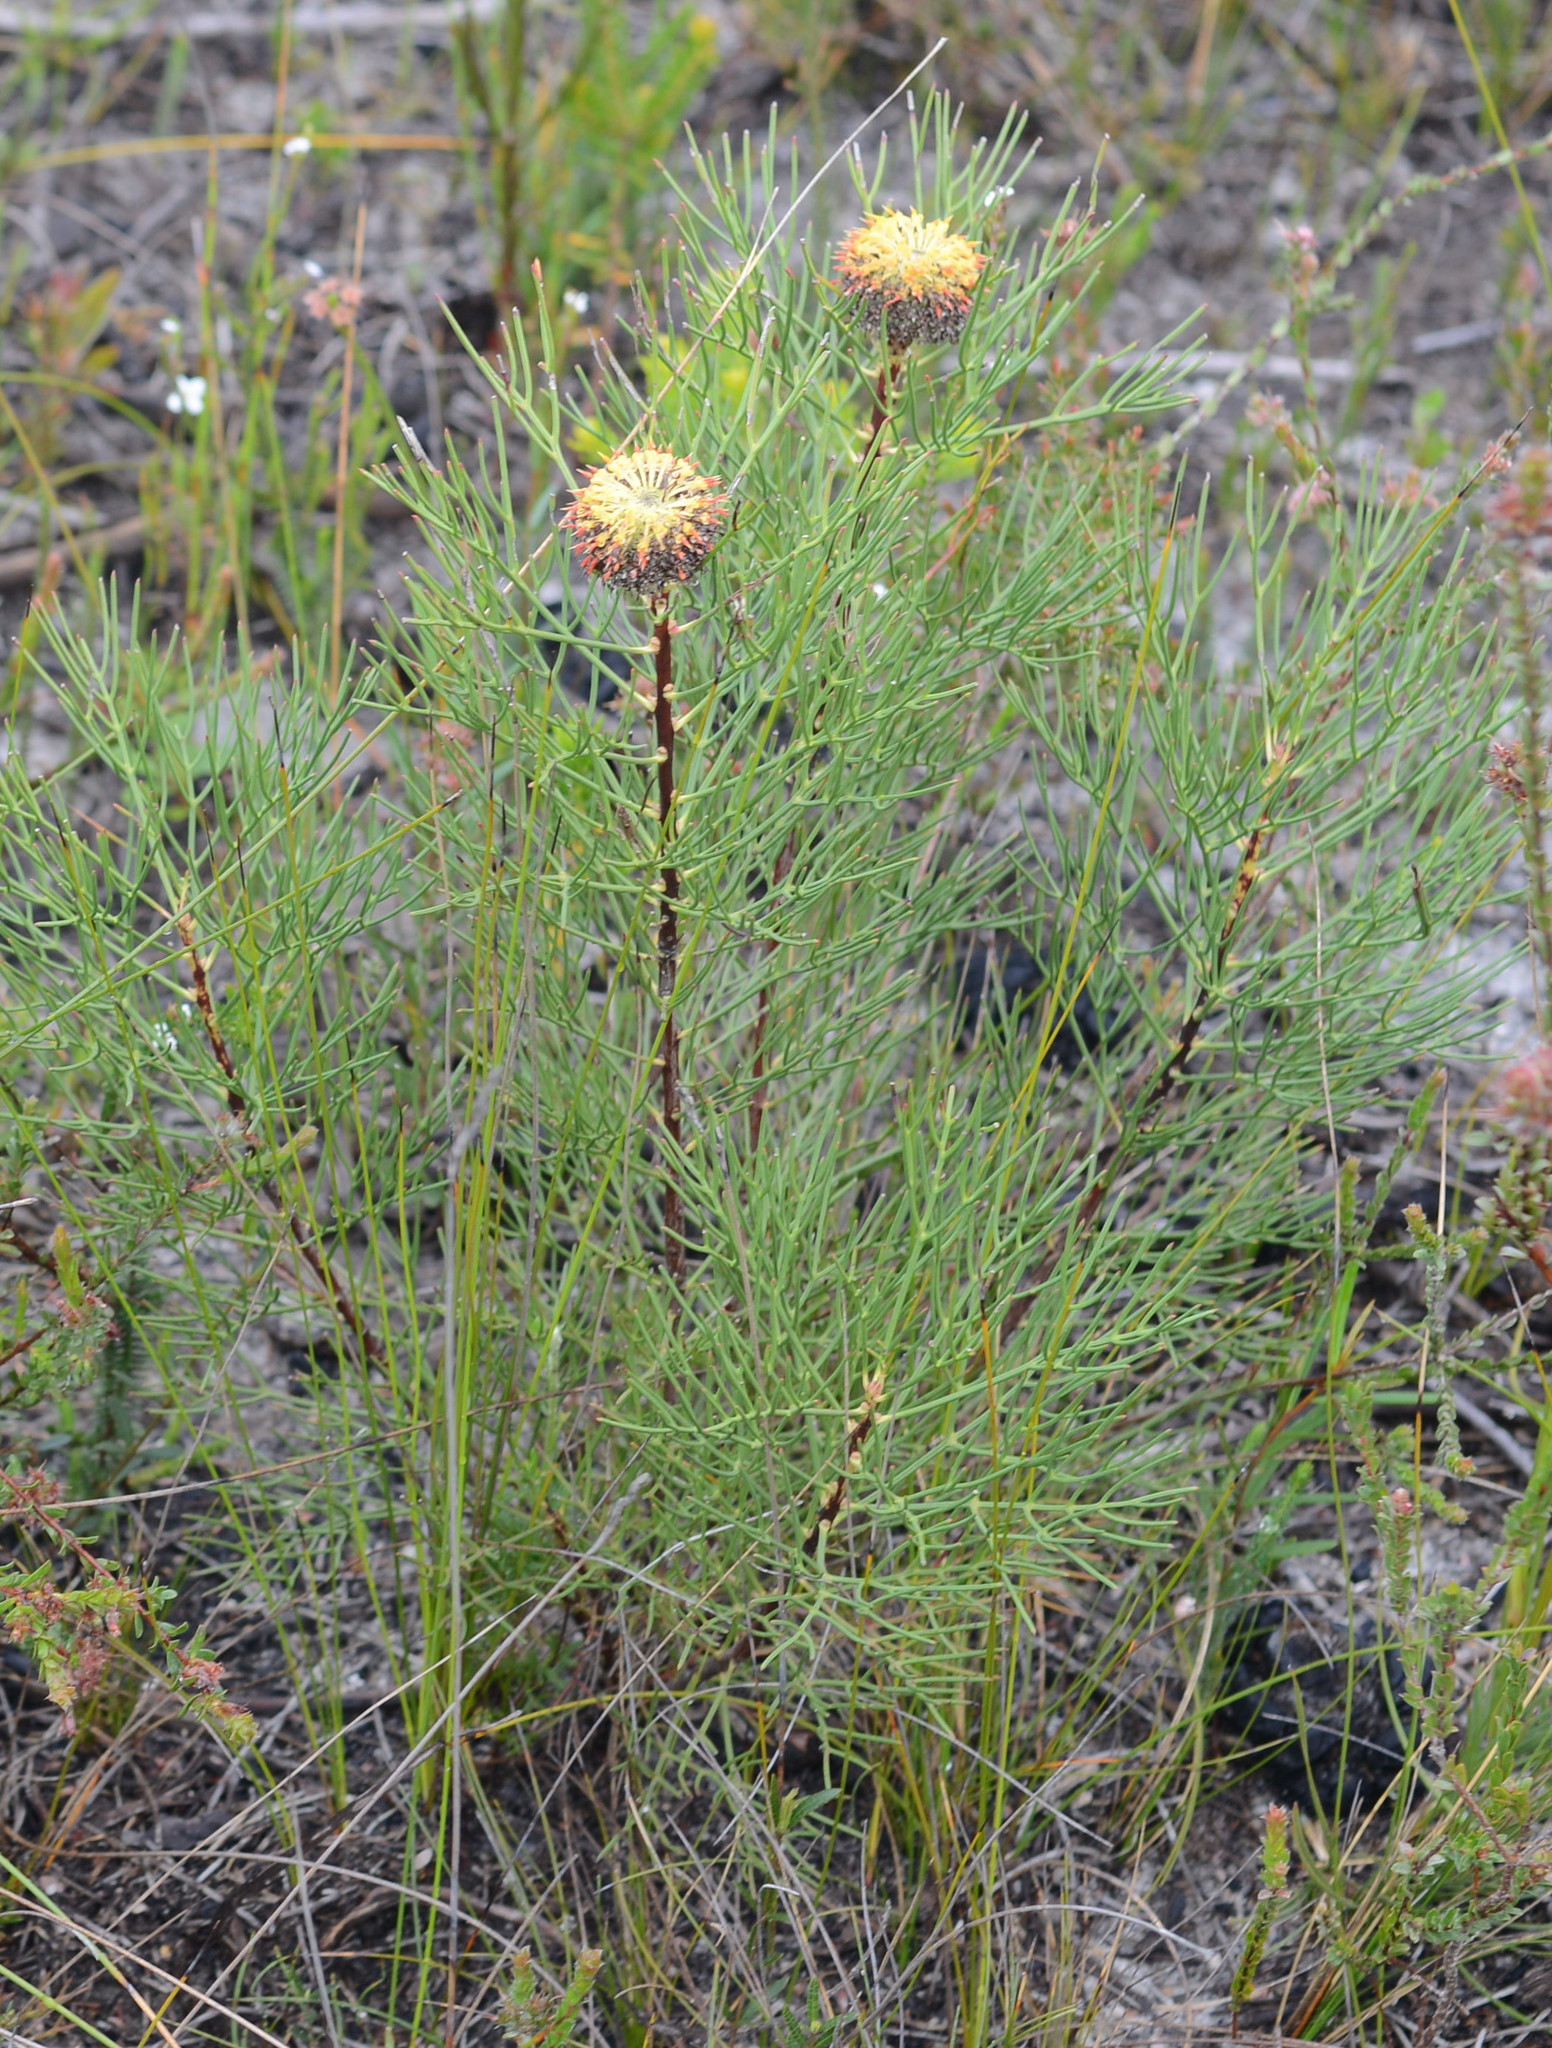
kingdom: Plantae
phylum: Tracheophyta
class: Magnoliopsida
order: Proteales
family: Proteaceae
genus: Isopogon
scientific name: Isopogon anethifolius
